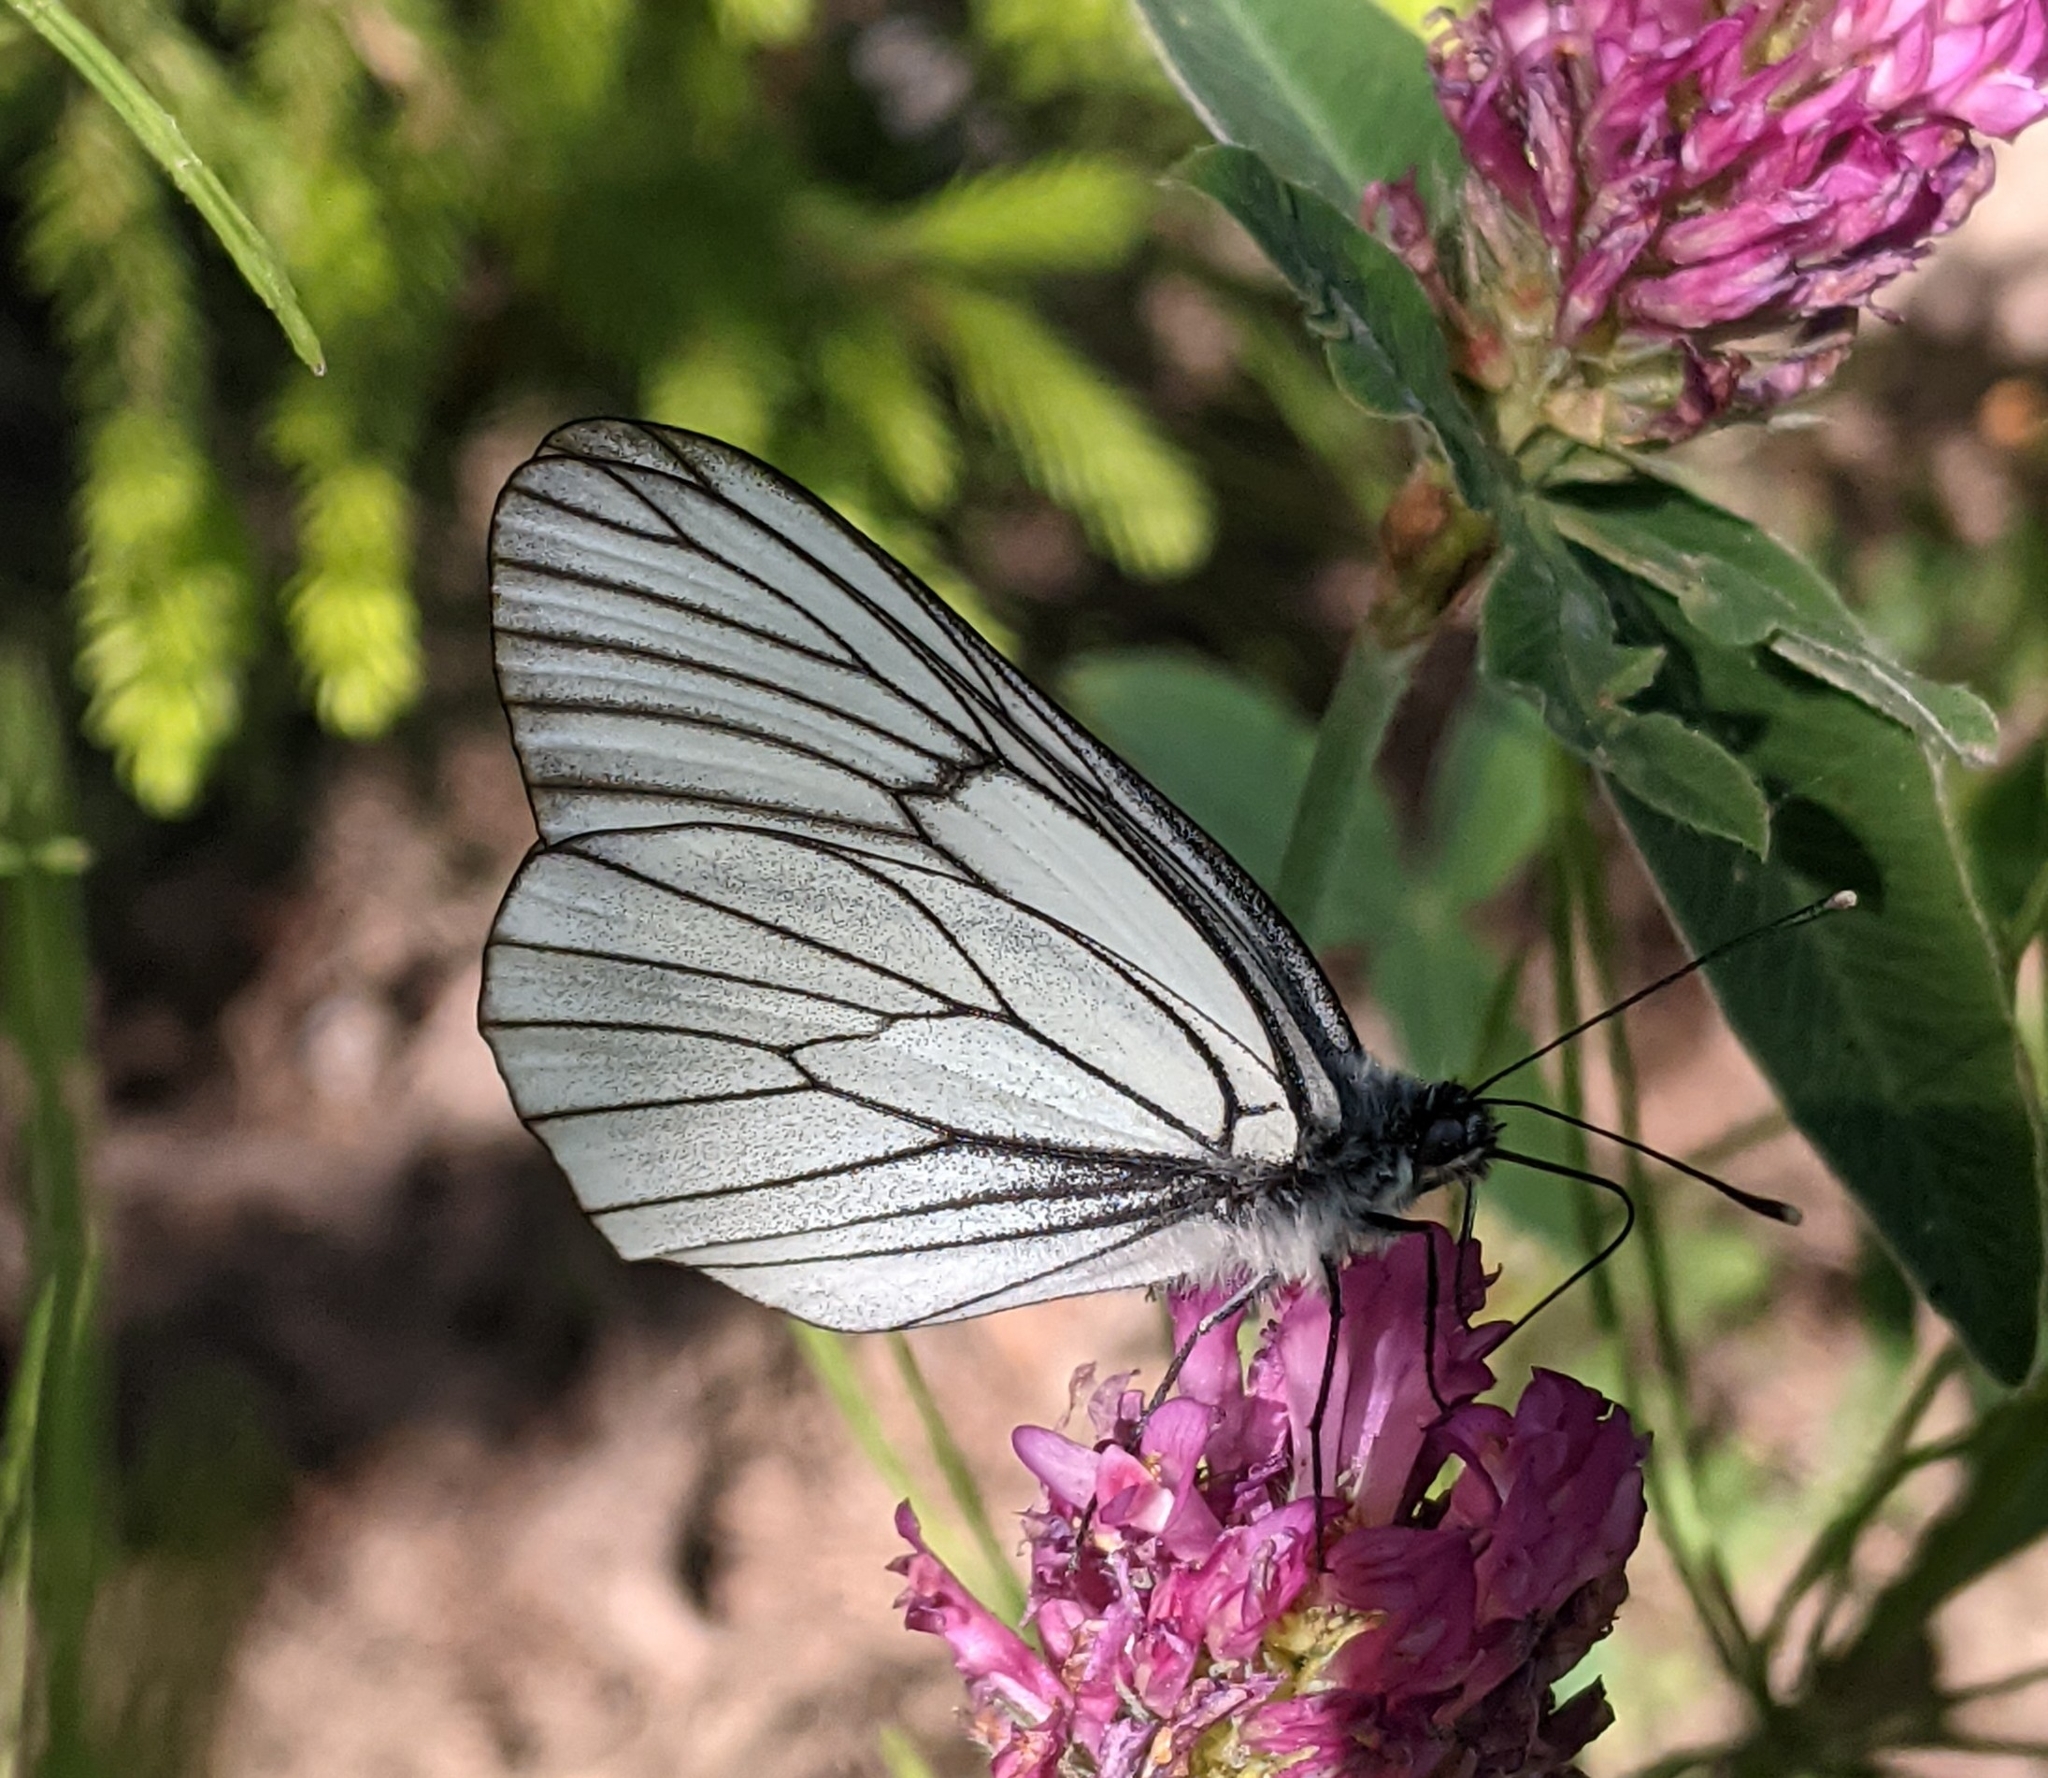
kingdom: Animalia
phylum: Arthropoda
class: Insecta
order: Lepidoptera
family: Pieridae
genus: Aporia
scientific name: Aporia crataegi
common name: Black-veined white
